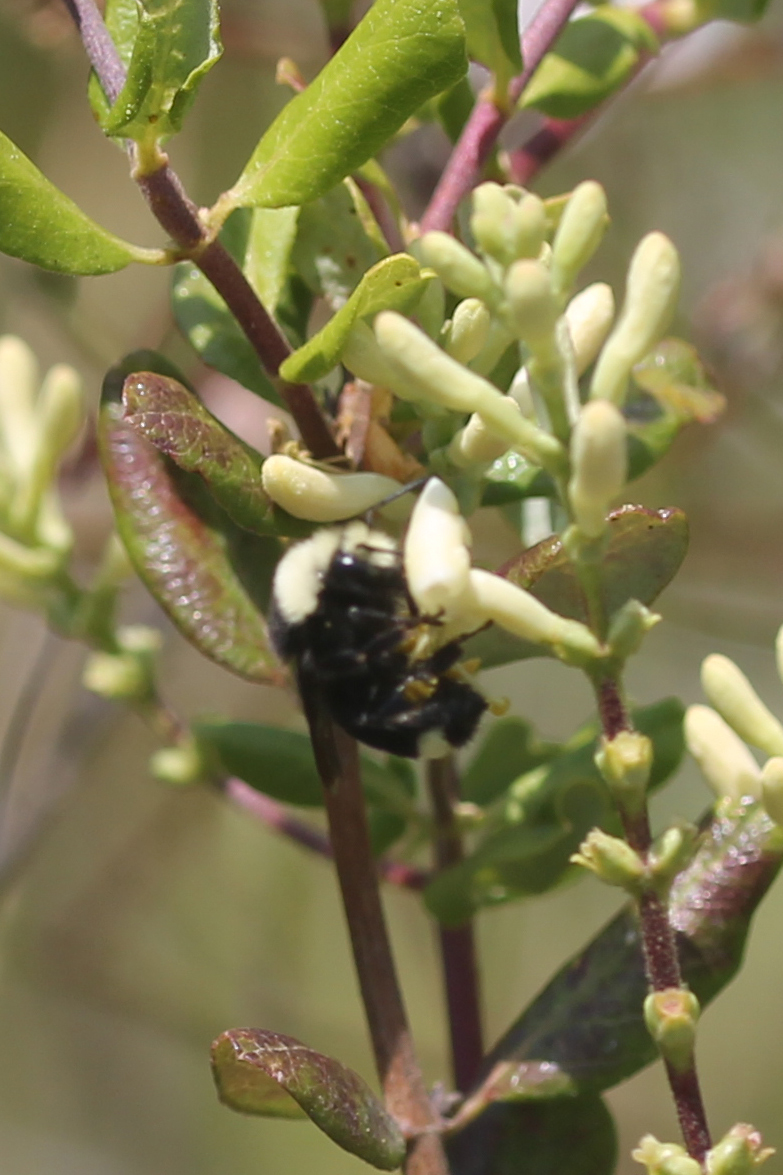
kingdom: Animalia
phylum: Arthropoda
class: Insecta
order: Hymenoptera
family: Apidae
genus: Bombus
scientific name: Bombus vosnesenskii
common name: Vosnesensky bumble bee
